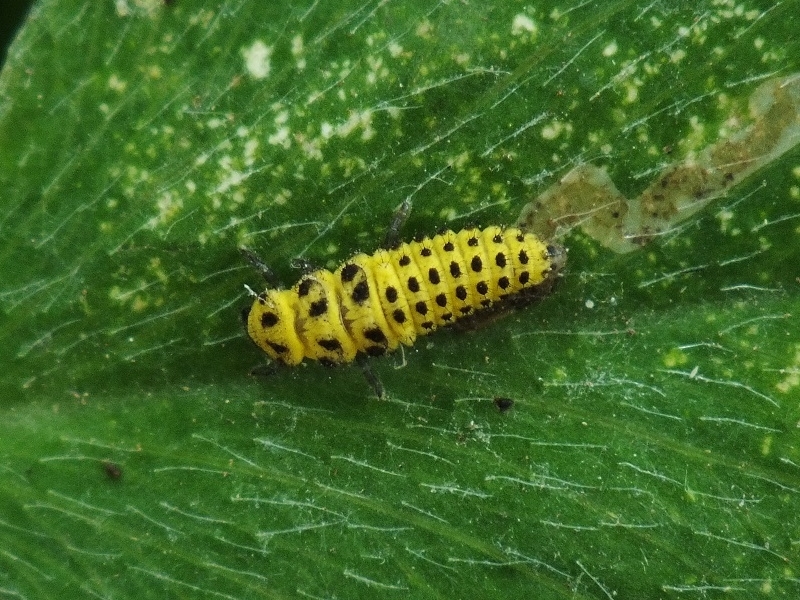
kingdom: Animalia
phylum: Arthropoda
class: Insecta
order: Coleoptera
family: Coccinellidae
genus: Psyllobora
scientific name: Psyllobora vigintiduopunctata
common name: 22-spot ladybird
